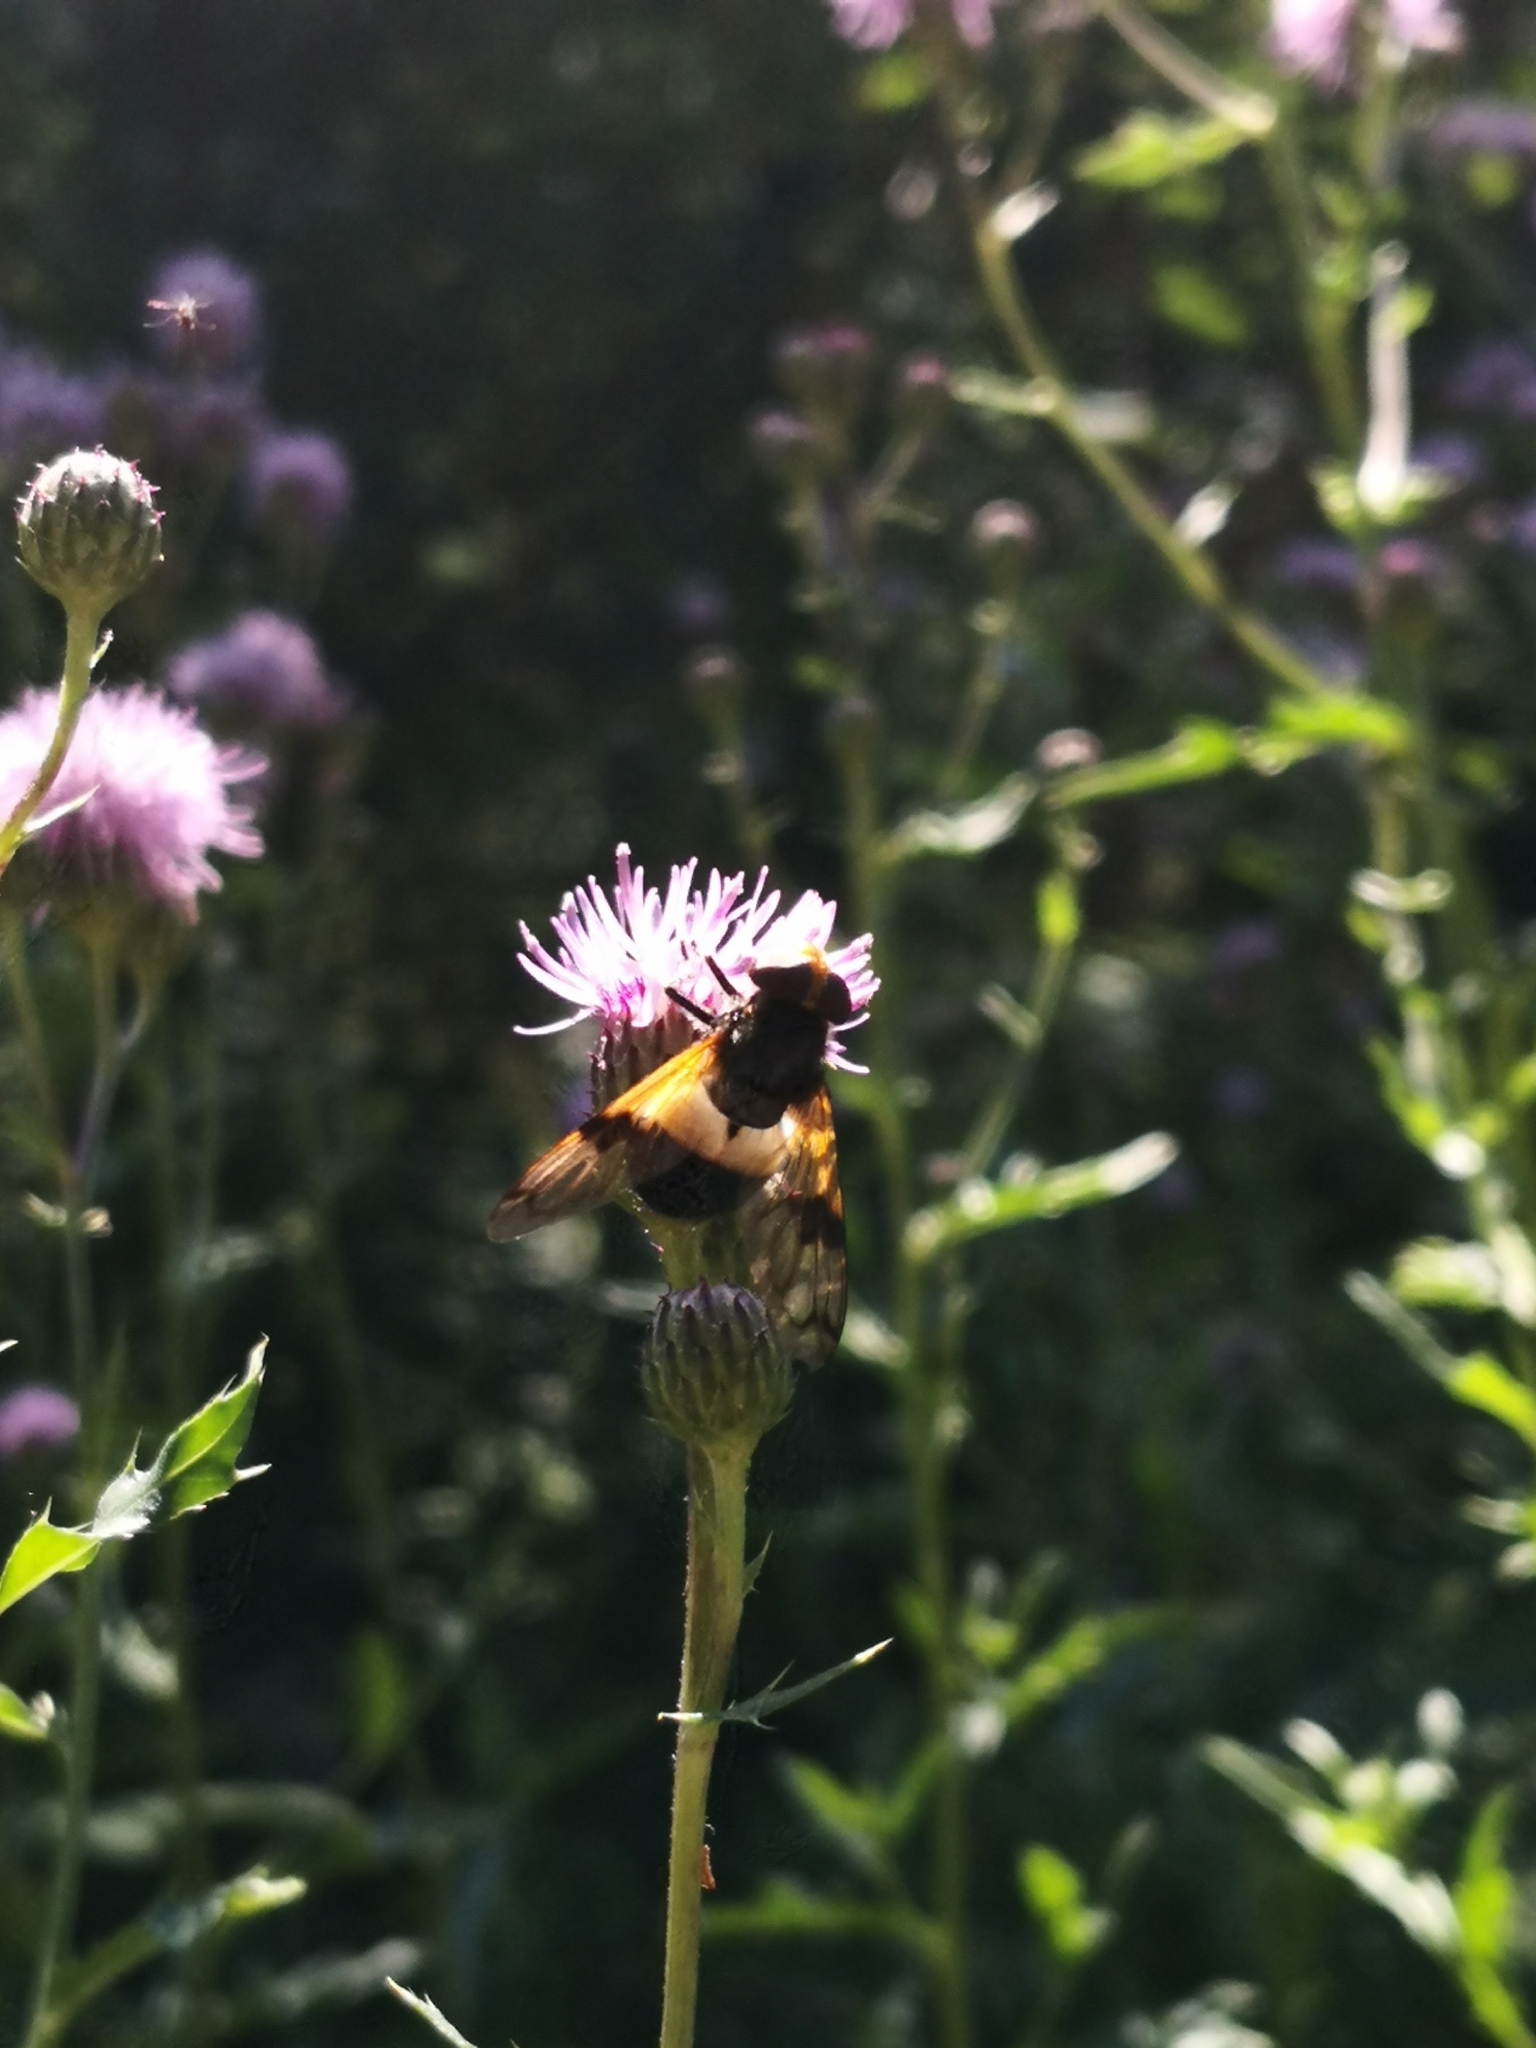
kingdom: Animalia
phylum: Arthropoda
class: Insecta
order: Diptera
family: Syrphidae
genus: Volucella
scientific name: Volucella pellucens
